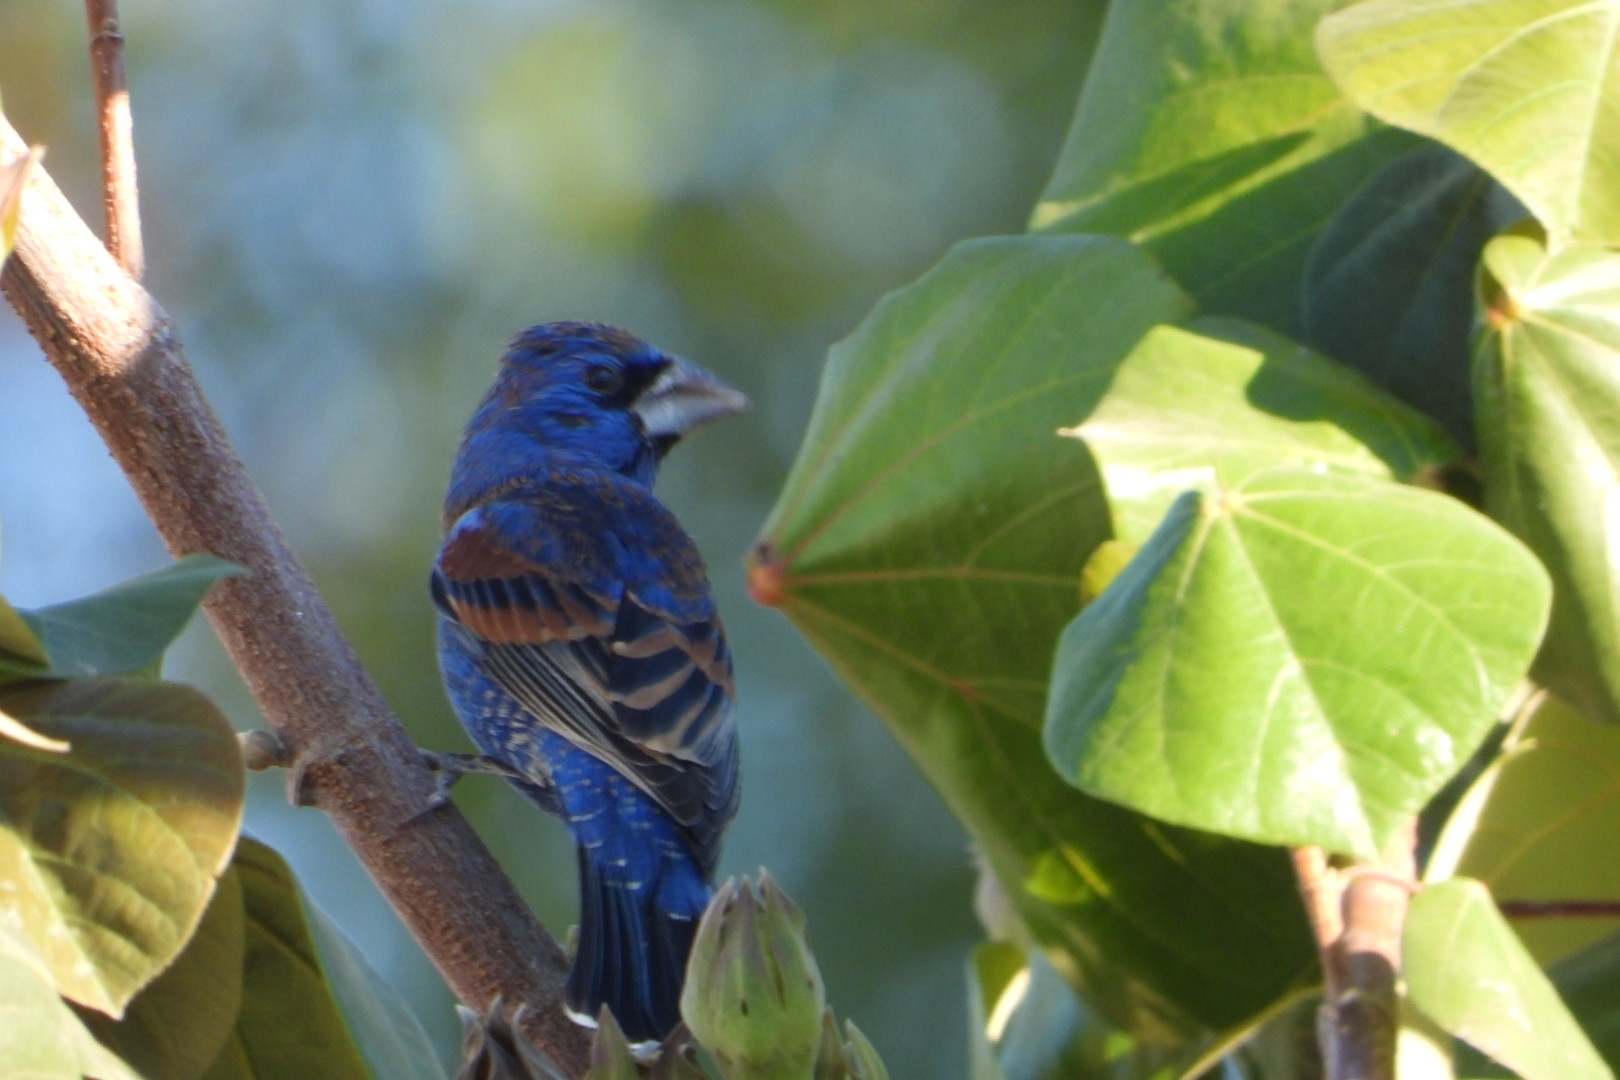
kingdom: Animalia
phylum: Chordata
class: Aves
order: Passeriformes
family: Cardinalidae
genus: Passerina
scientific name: Passerina caerulea
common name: Blue grosbeak
